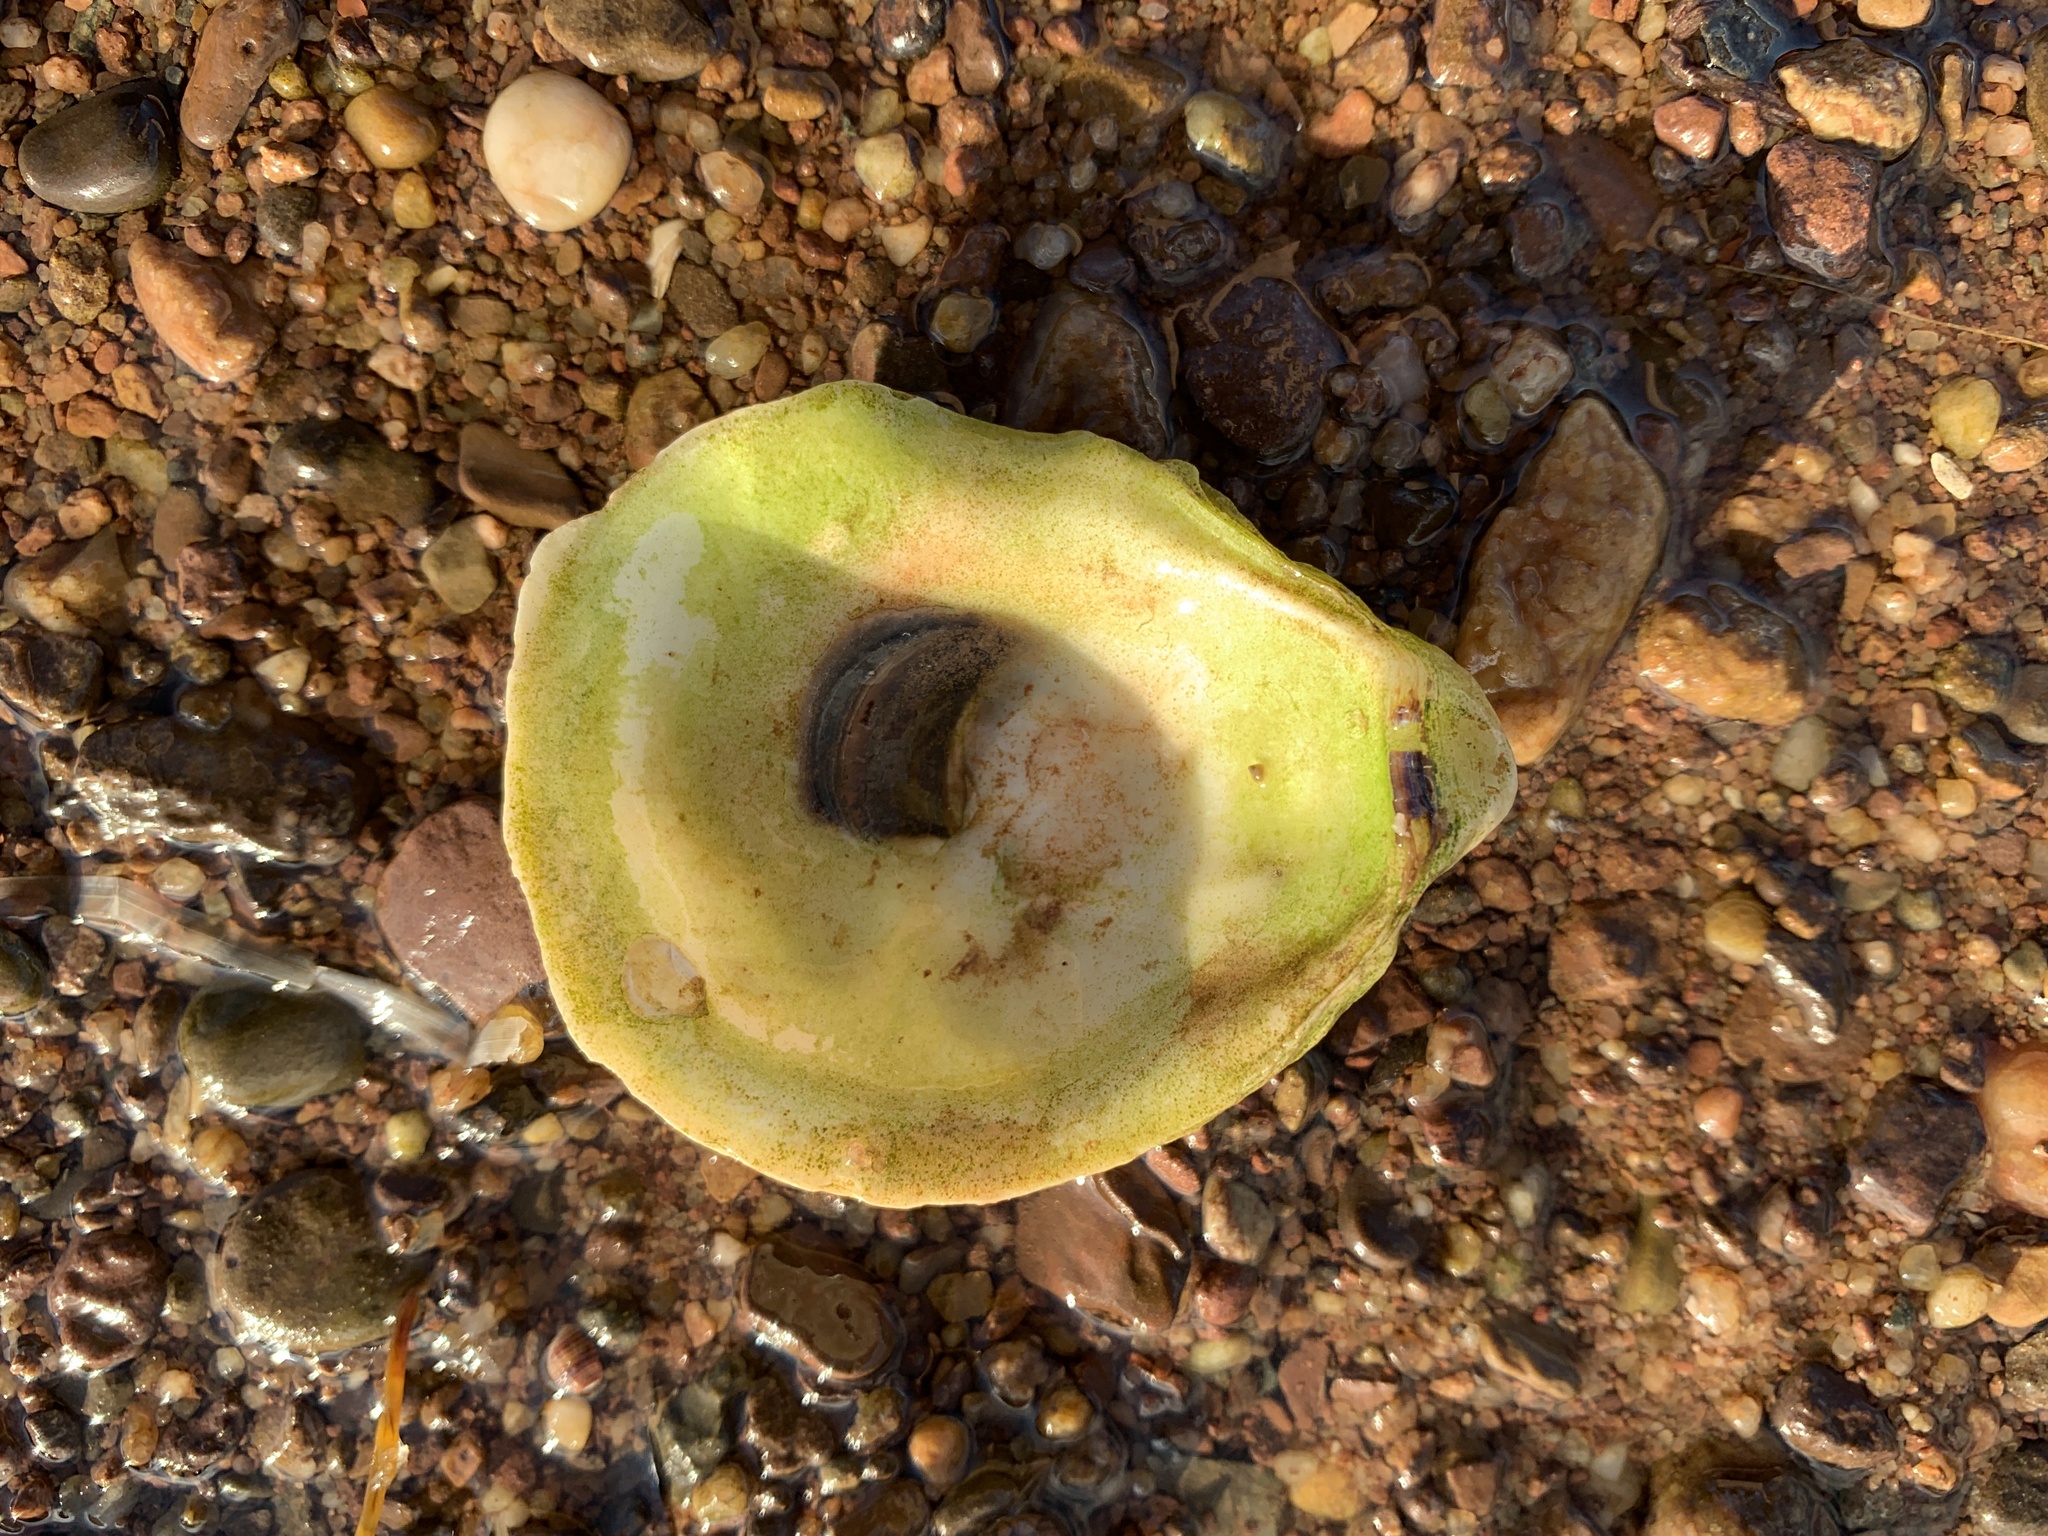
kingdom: Animalia
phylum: Mollusca
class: Bivalvia
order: Ostreida
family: Ostreidae
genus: Crassostrea
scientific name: Crassostrea virginica
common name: American oyster
